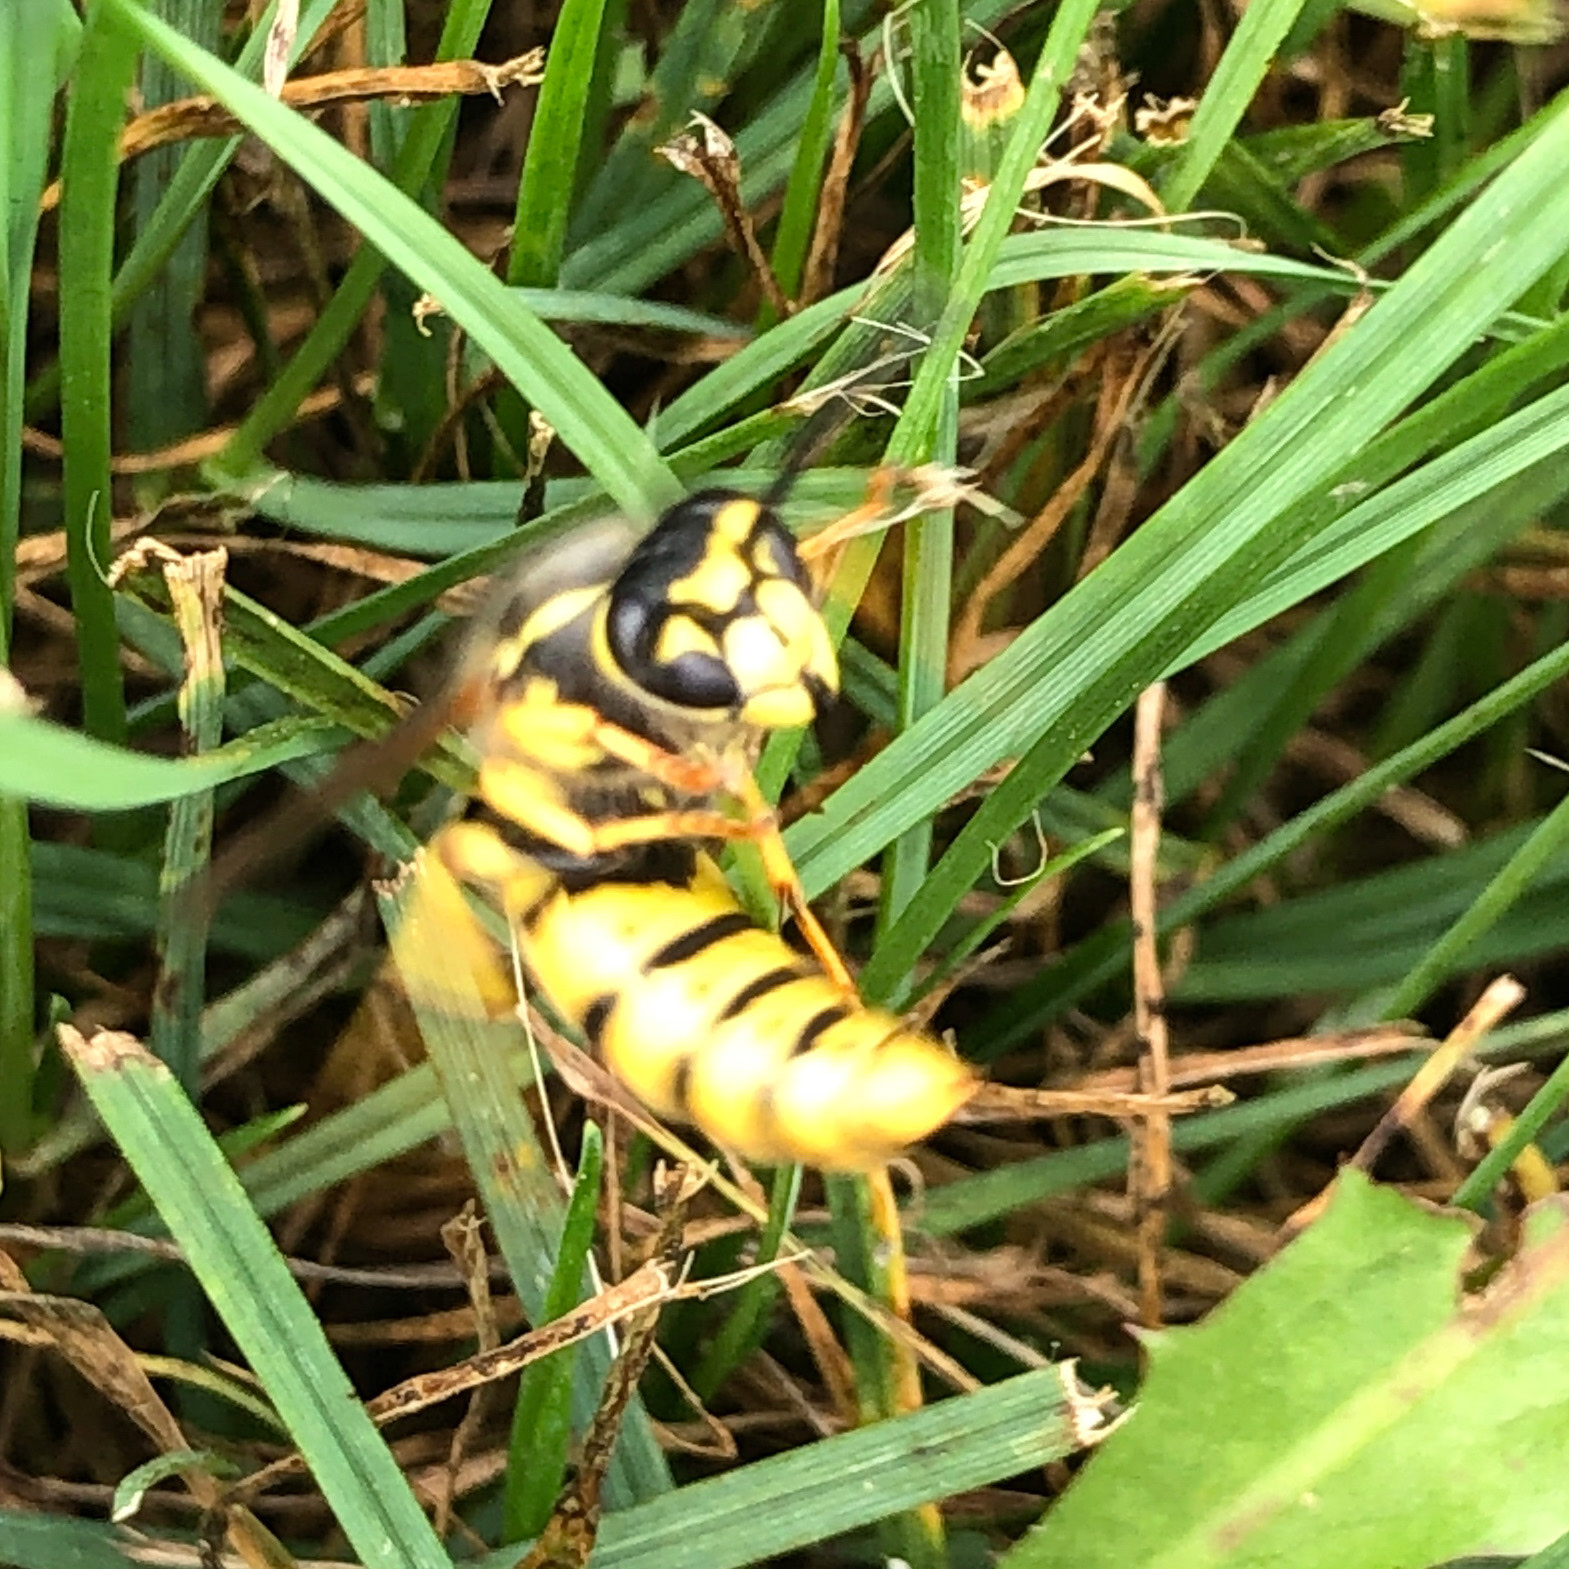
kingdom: Animalia
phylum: Arthropoda
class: Insecta
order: Hymenoptera
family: Vespidae
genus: Vespula
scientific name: Vespula germanica
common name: German wasp
